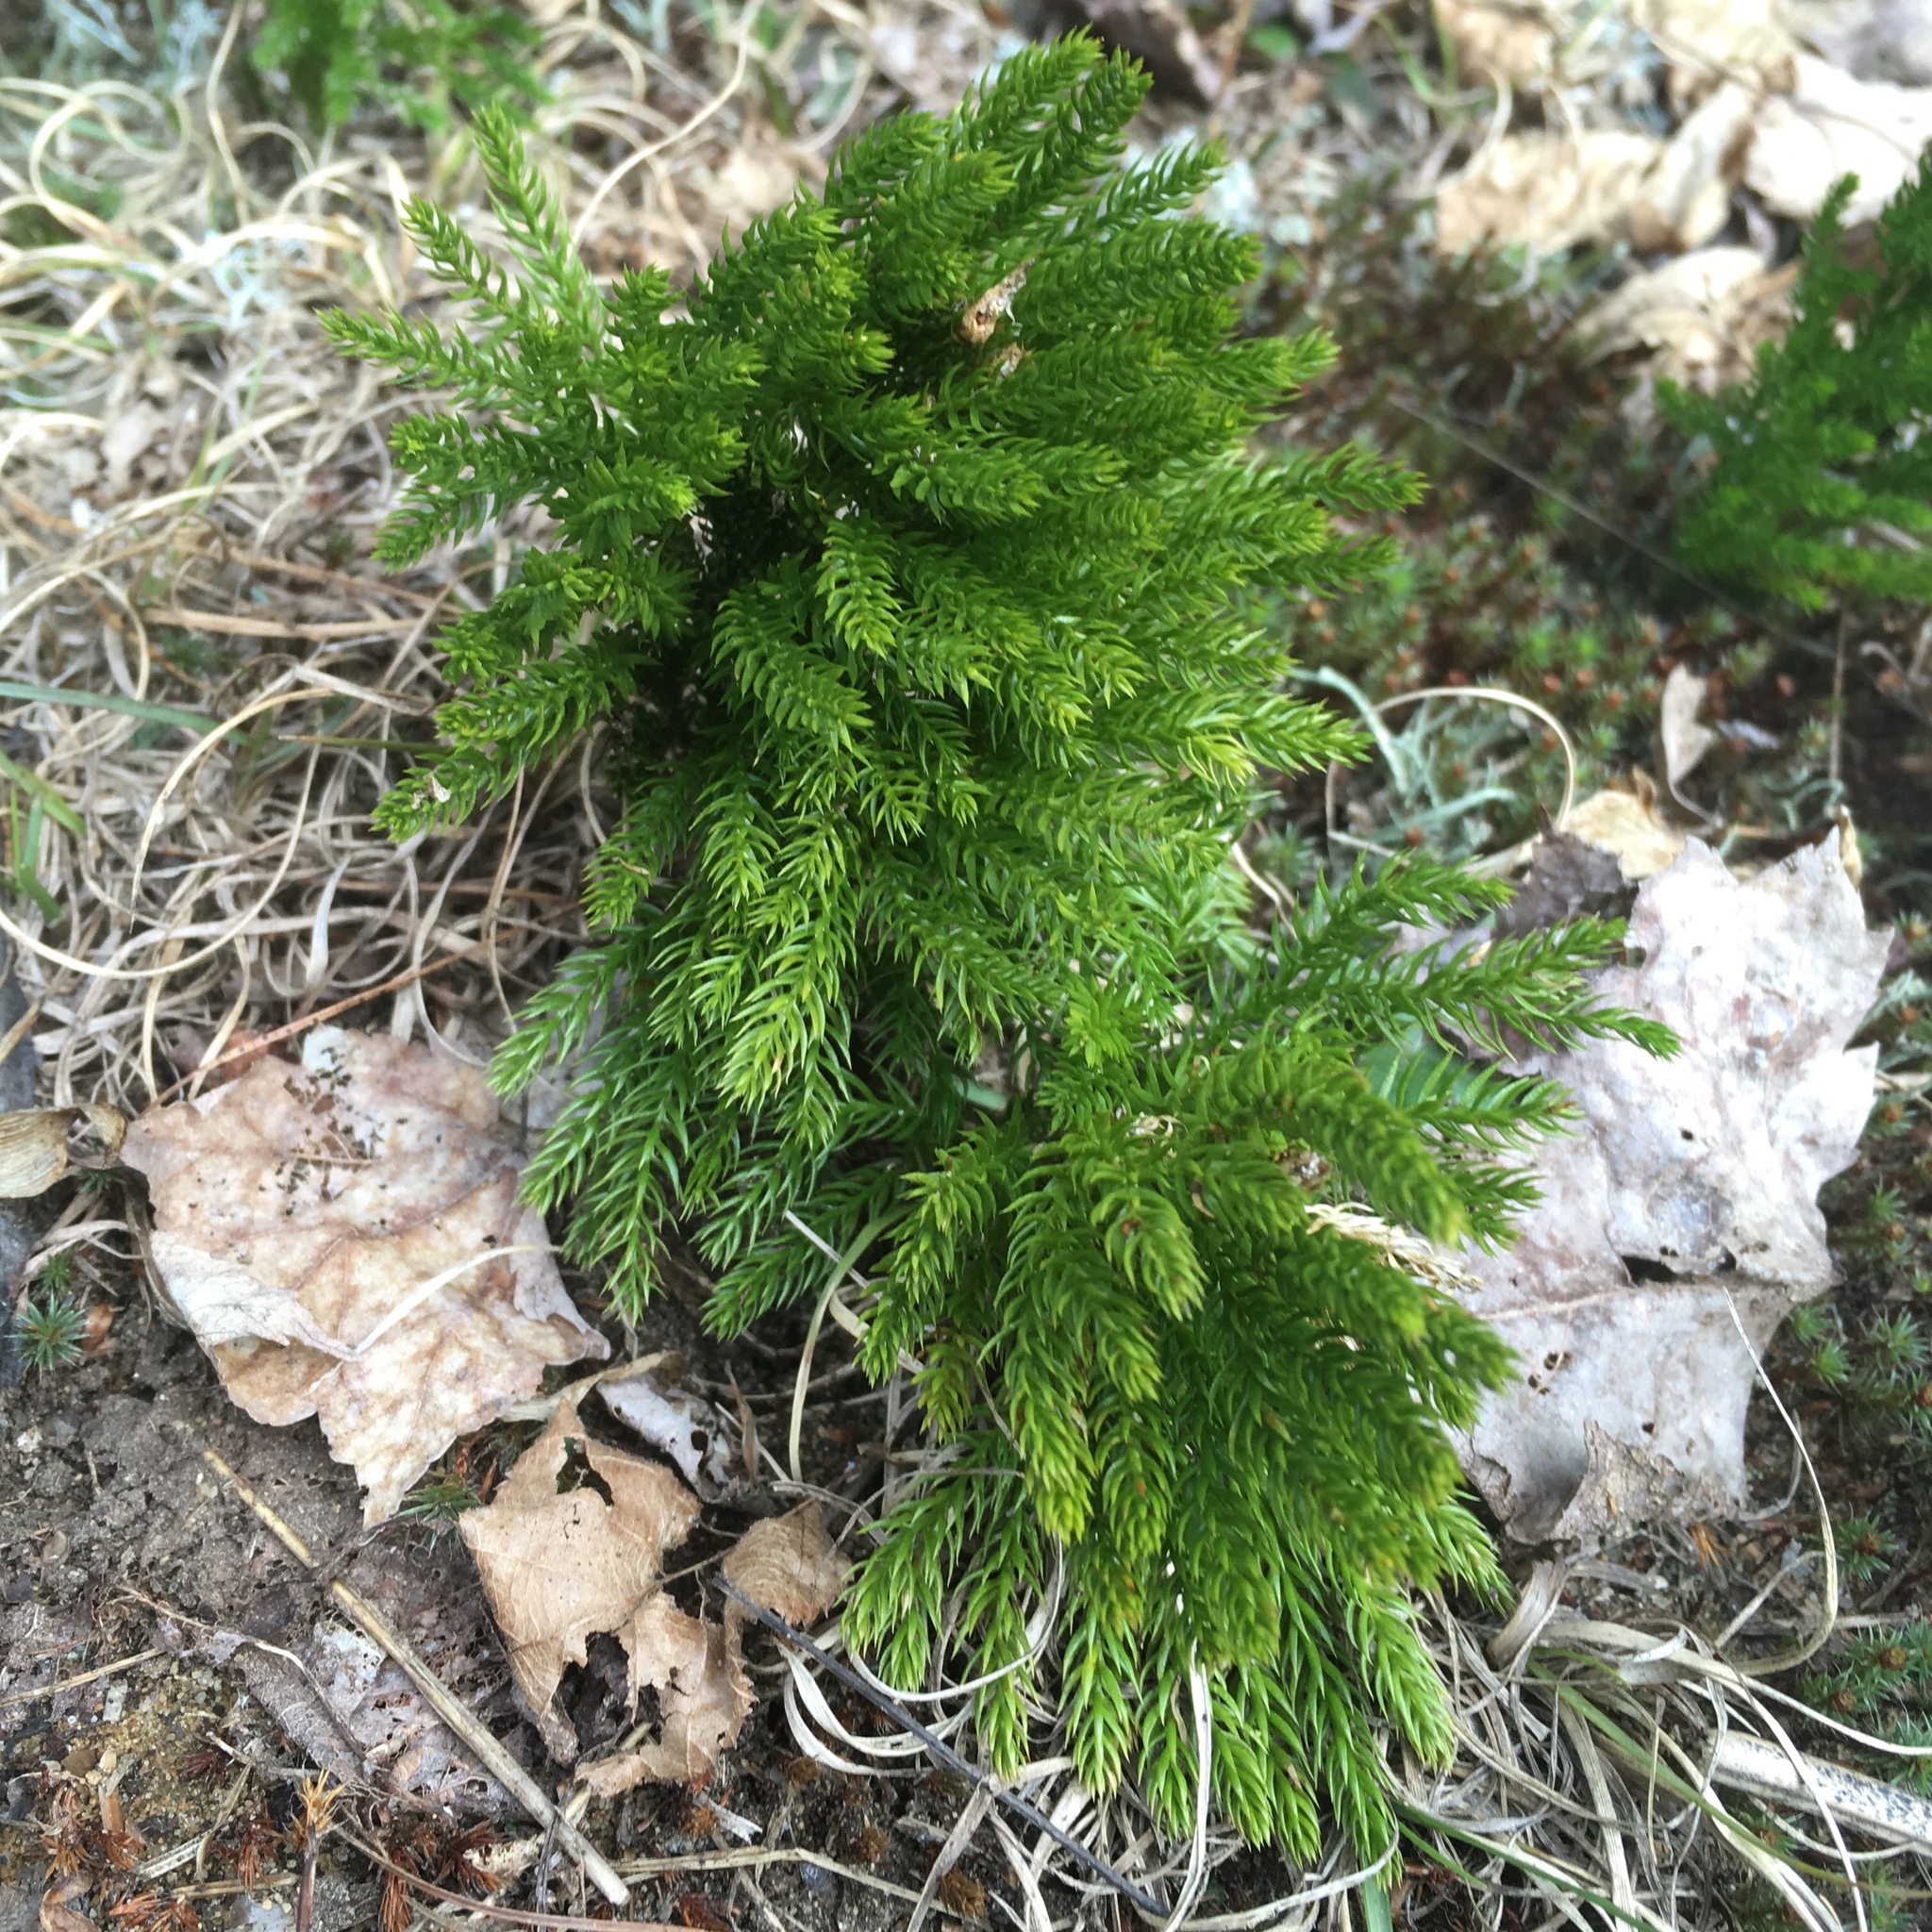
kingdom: Plantae
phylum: Tracheophyta
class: Lycopodiopsida
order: Lycopodiales
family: Lycopodiaceae
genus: Dendrolycopodium
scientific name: Dendrolycopodium hickeyi
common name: Hickey's clubmoss
